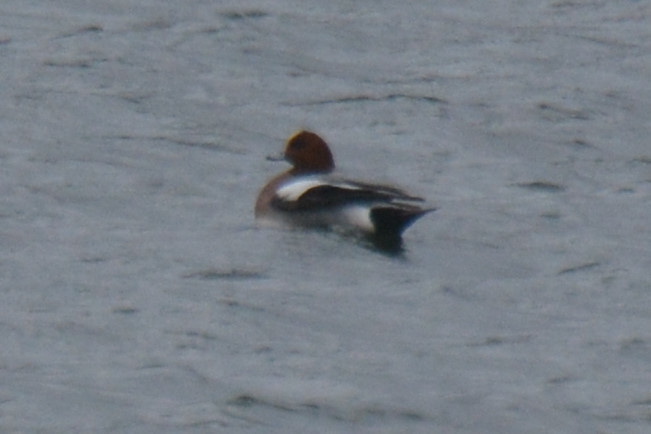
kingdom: Animalia
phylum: Chordata
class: Aves
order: Anseriformes
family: Anatidae
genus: Mareca
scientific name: Mareca penelope
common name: Eurasian wigeon
